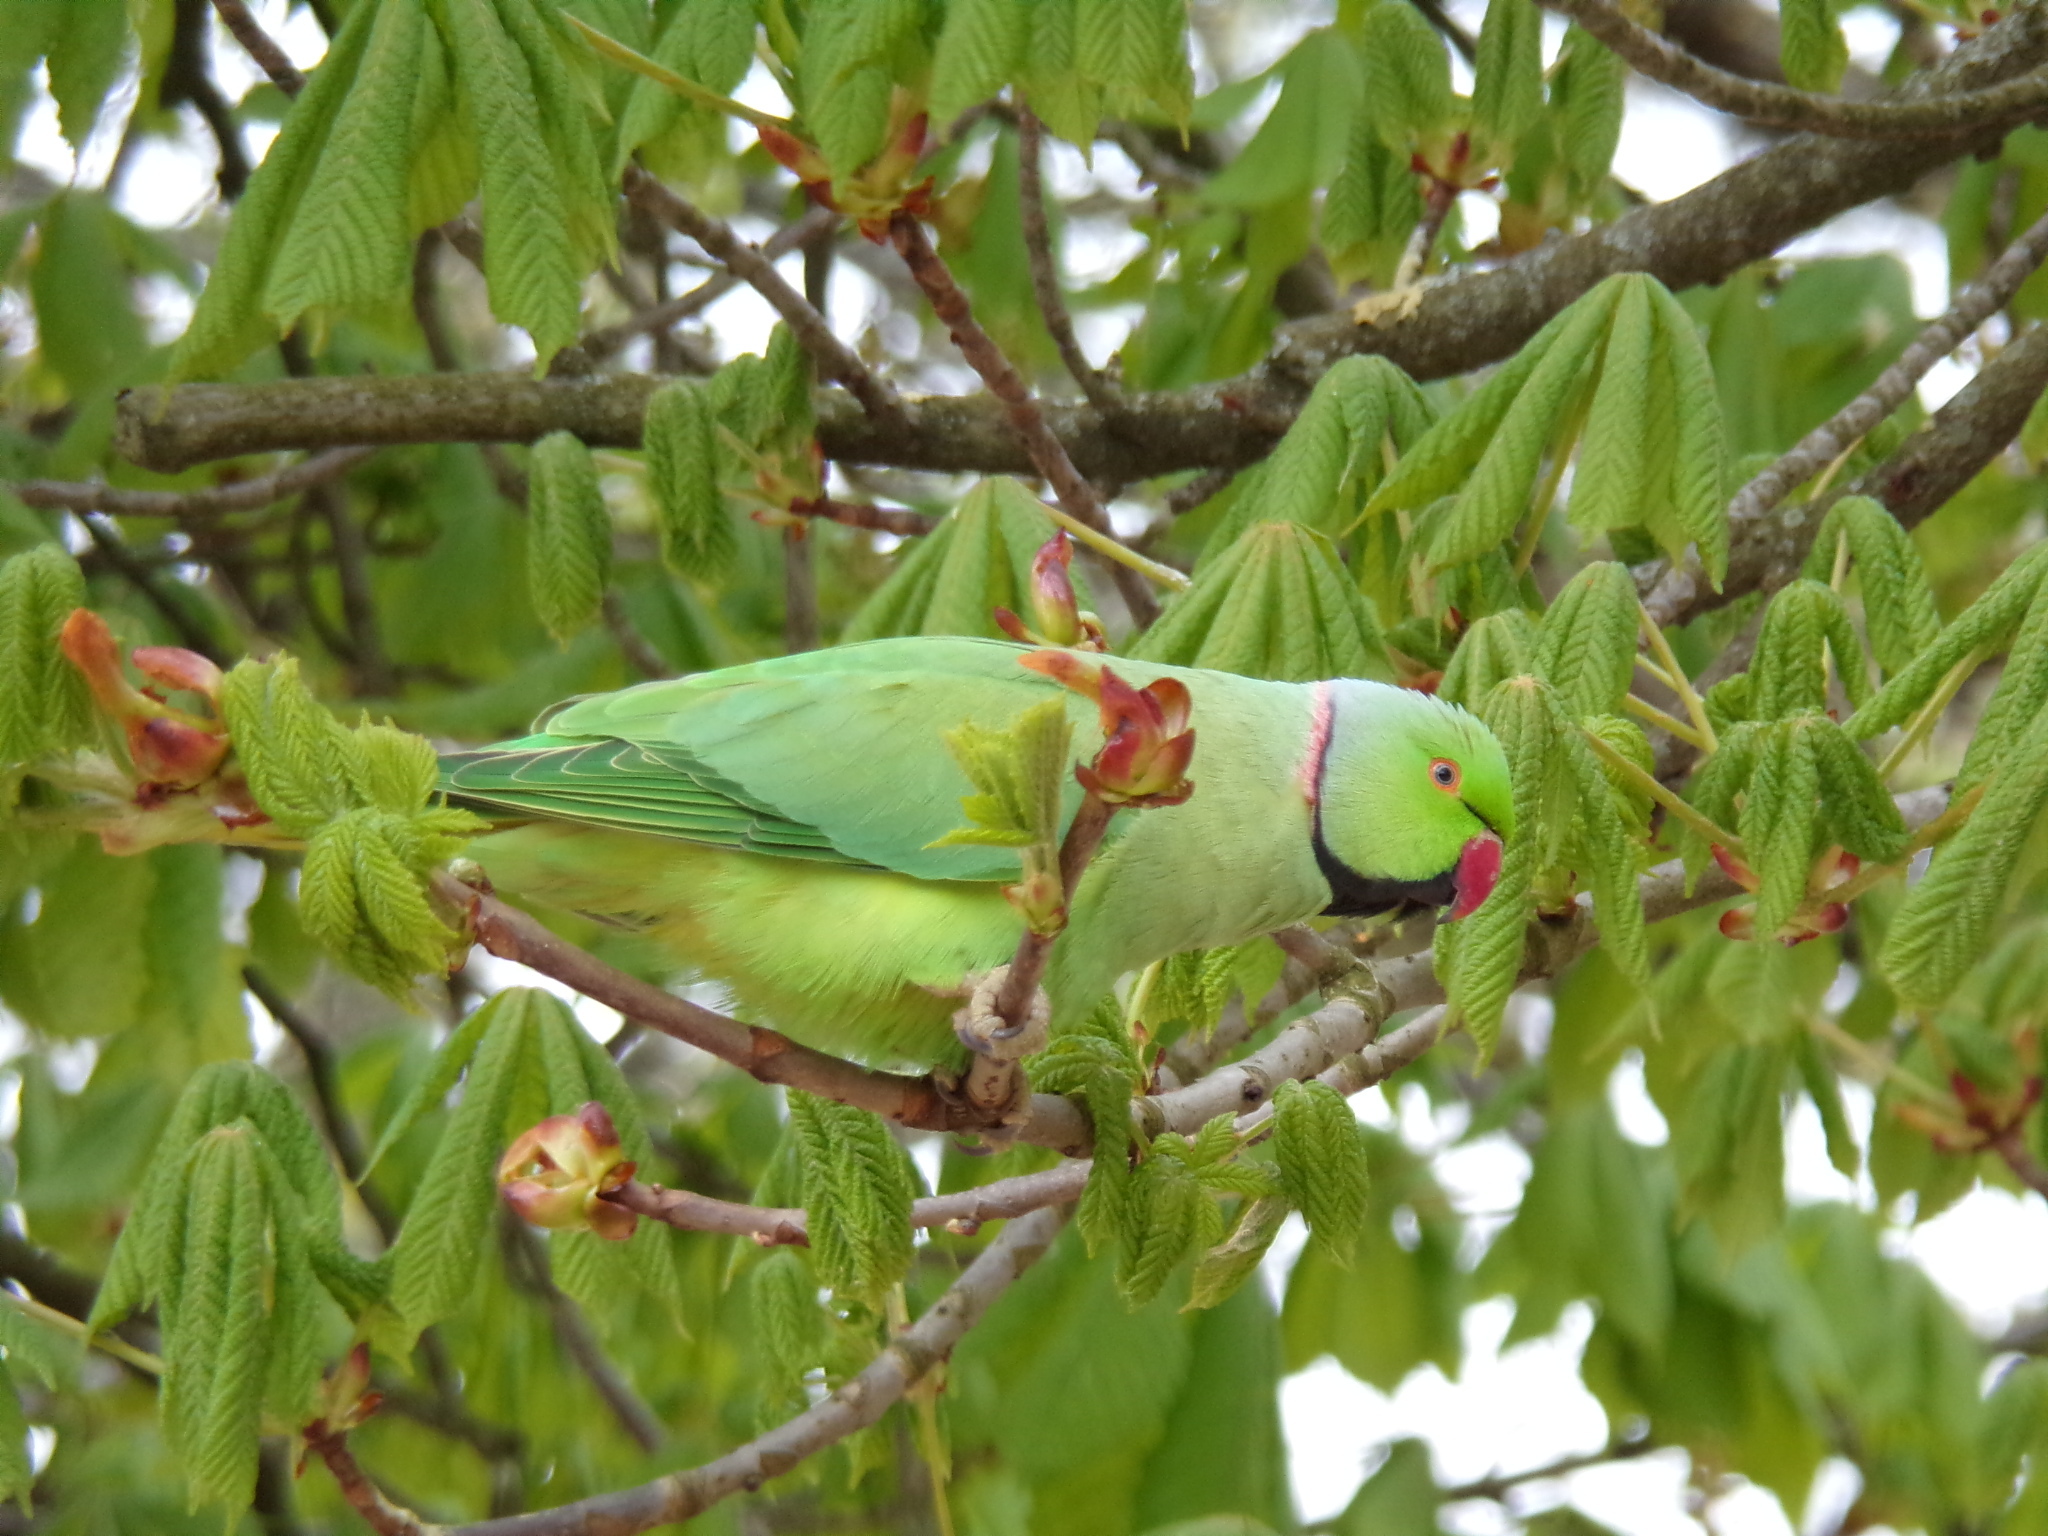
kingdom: Animalia
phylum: Chordata
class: Aves
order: Psittaciformes
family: Psittacidae
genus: Psittacula
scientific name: Psittacula krameri
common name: Rose-ringed parakeet
